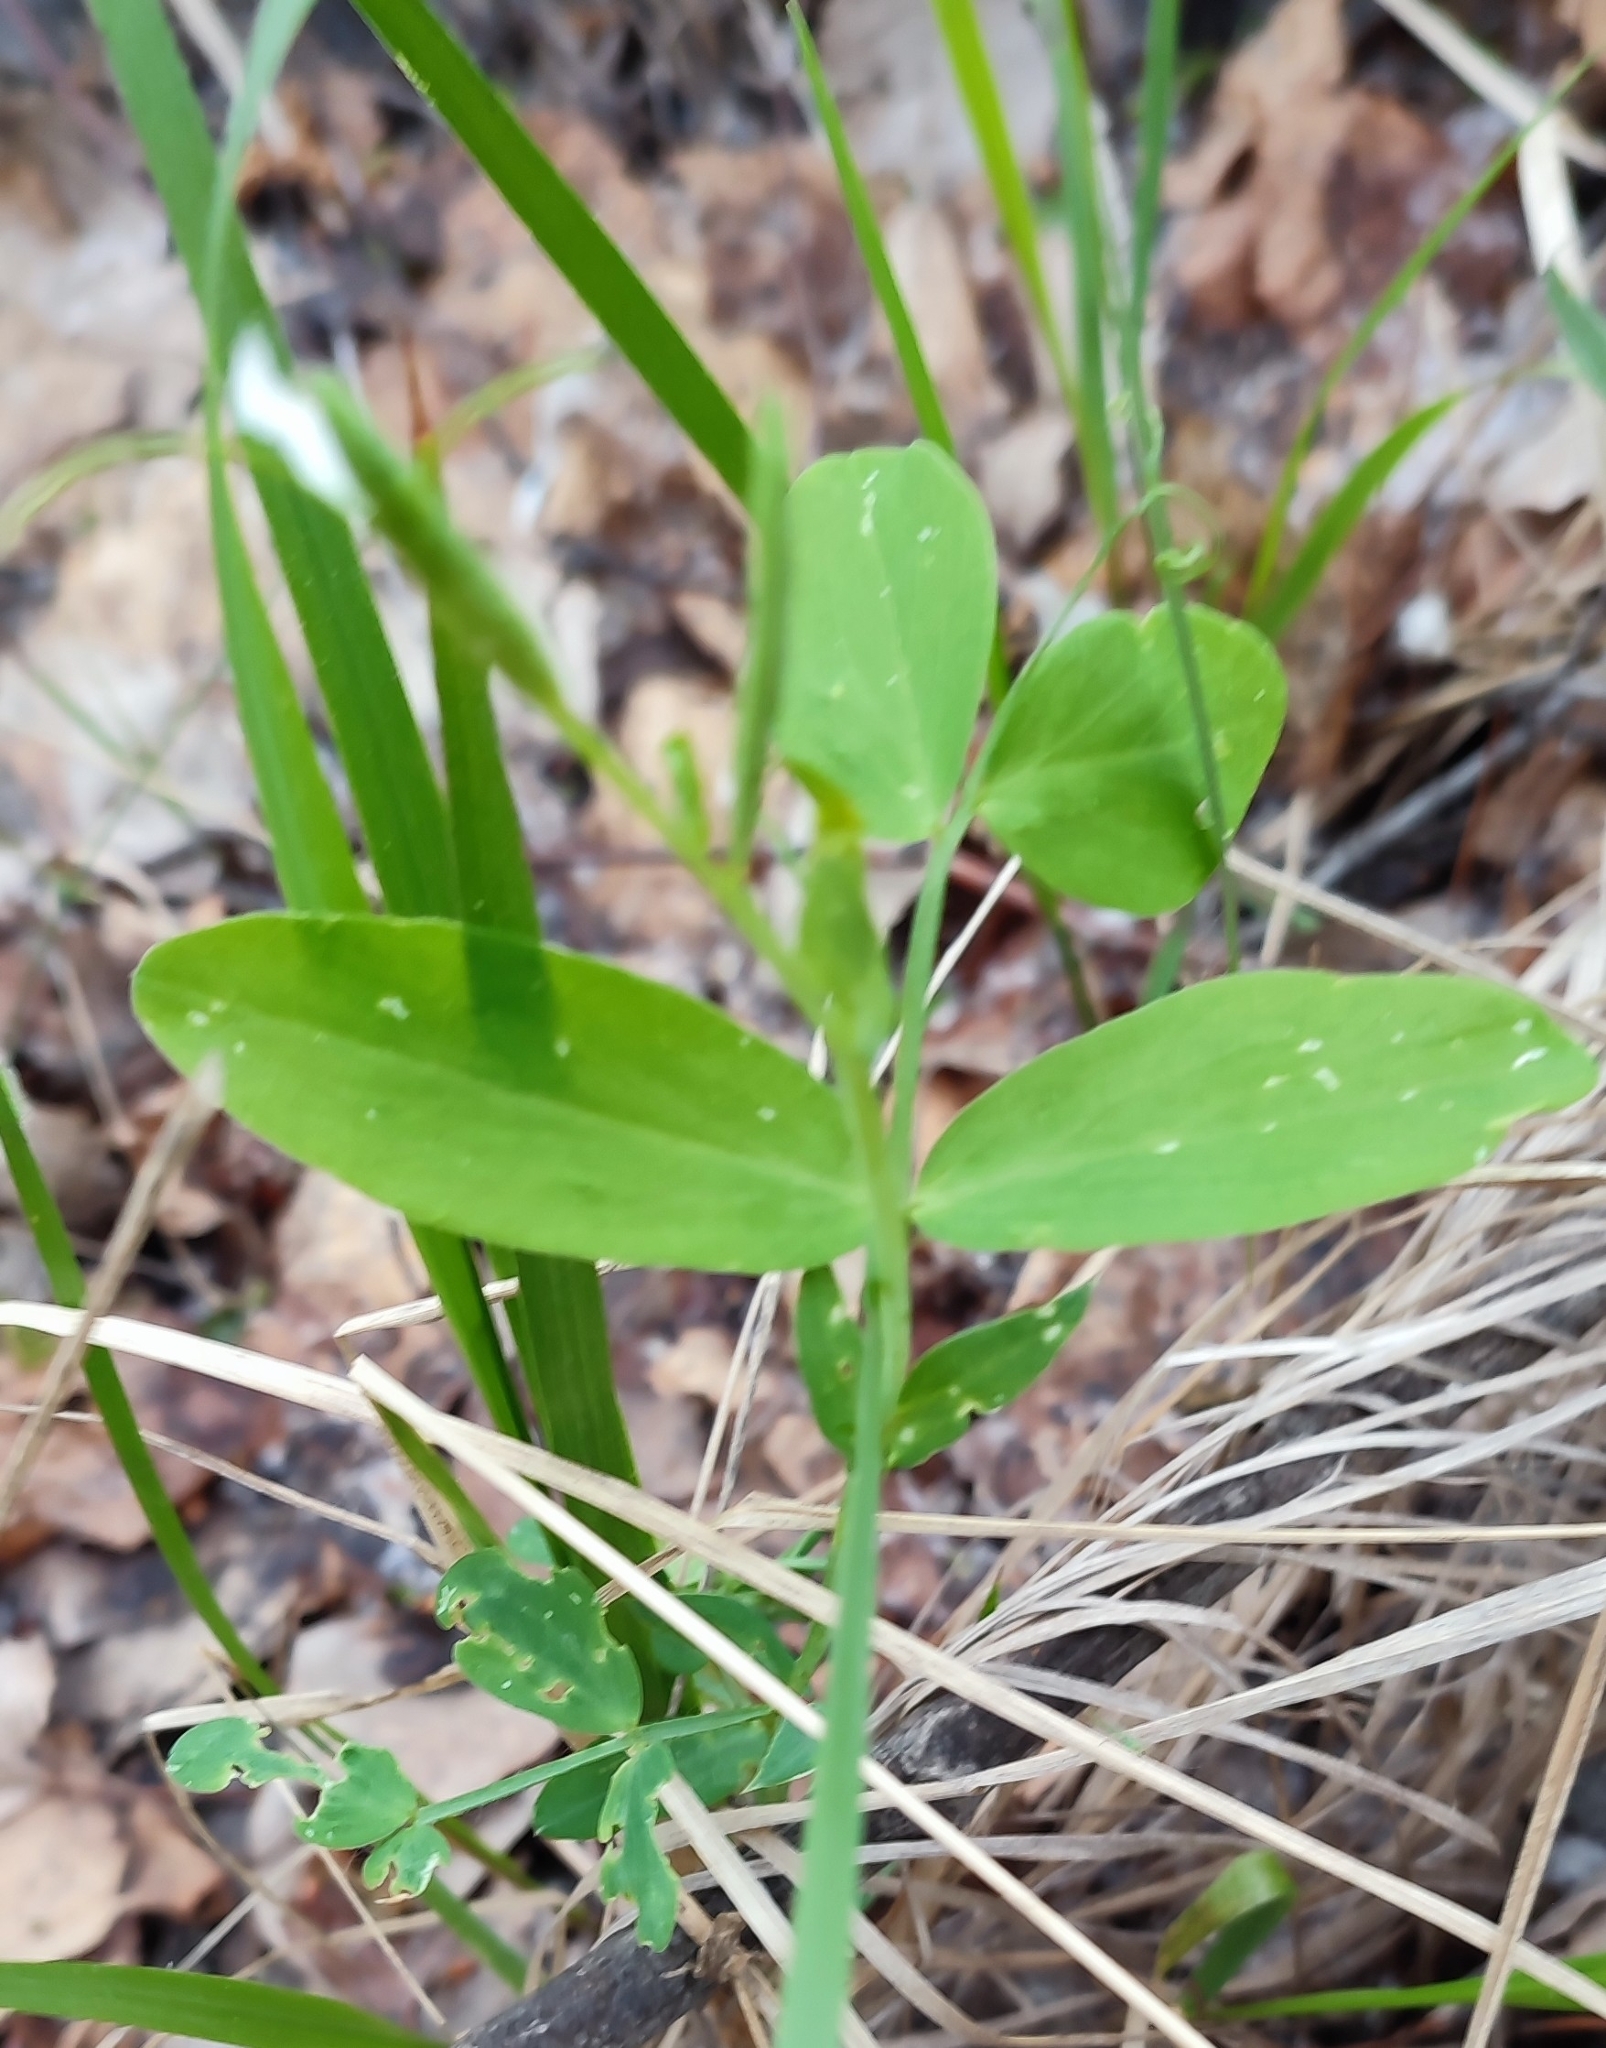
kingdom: Plantae
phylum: Tracheophyta
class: Magnoliopsida
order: Fabales
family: Fabaceae
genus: Lathyrus
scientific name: Lathyrus pisiformis
